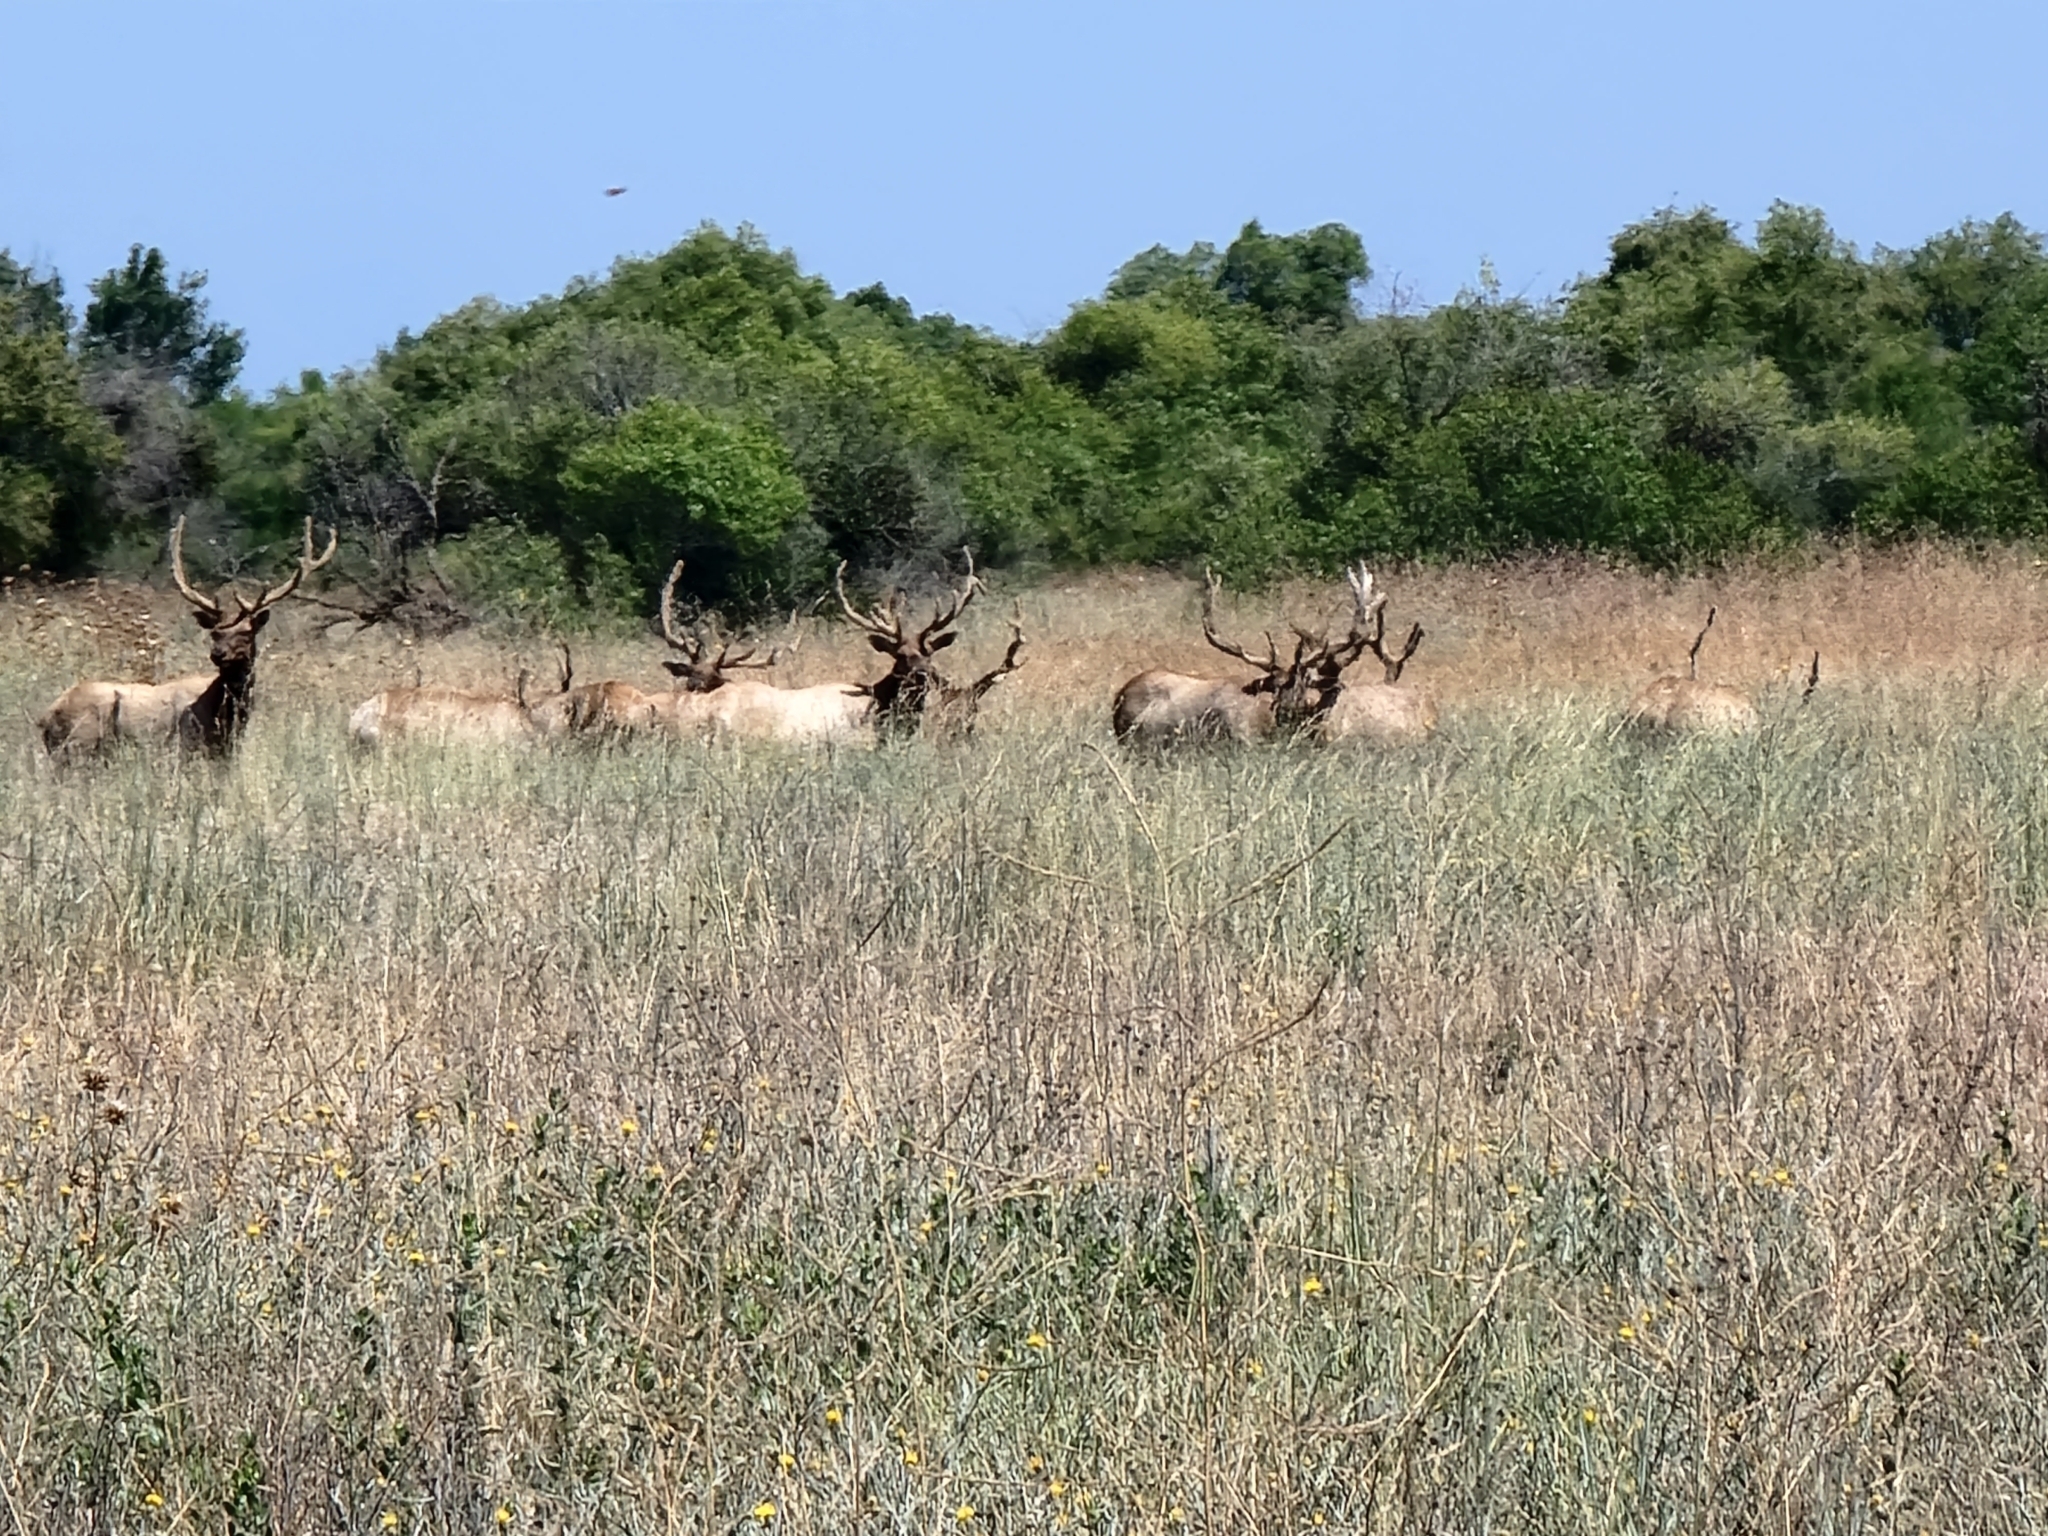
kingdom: Animalia
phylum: Chordata
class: Mammalia
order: Artiodactyla
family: Cervidae
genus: Cervus
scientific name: Cervus elaphus
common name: Red deer
